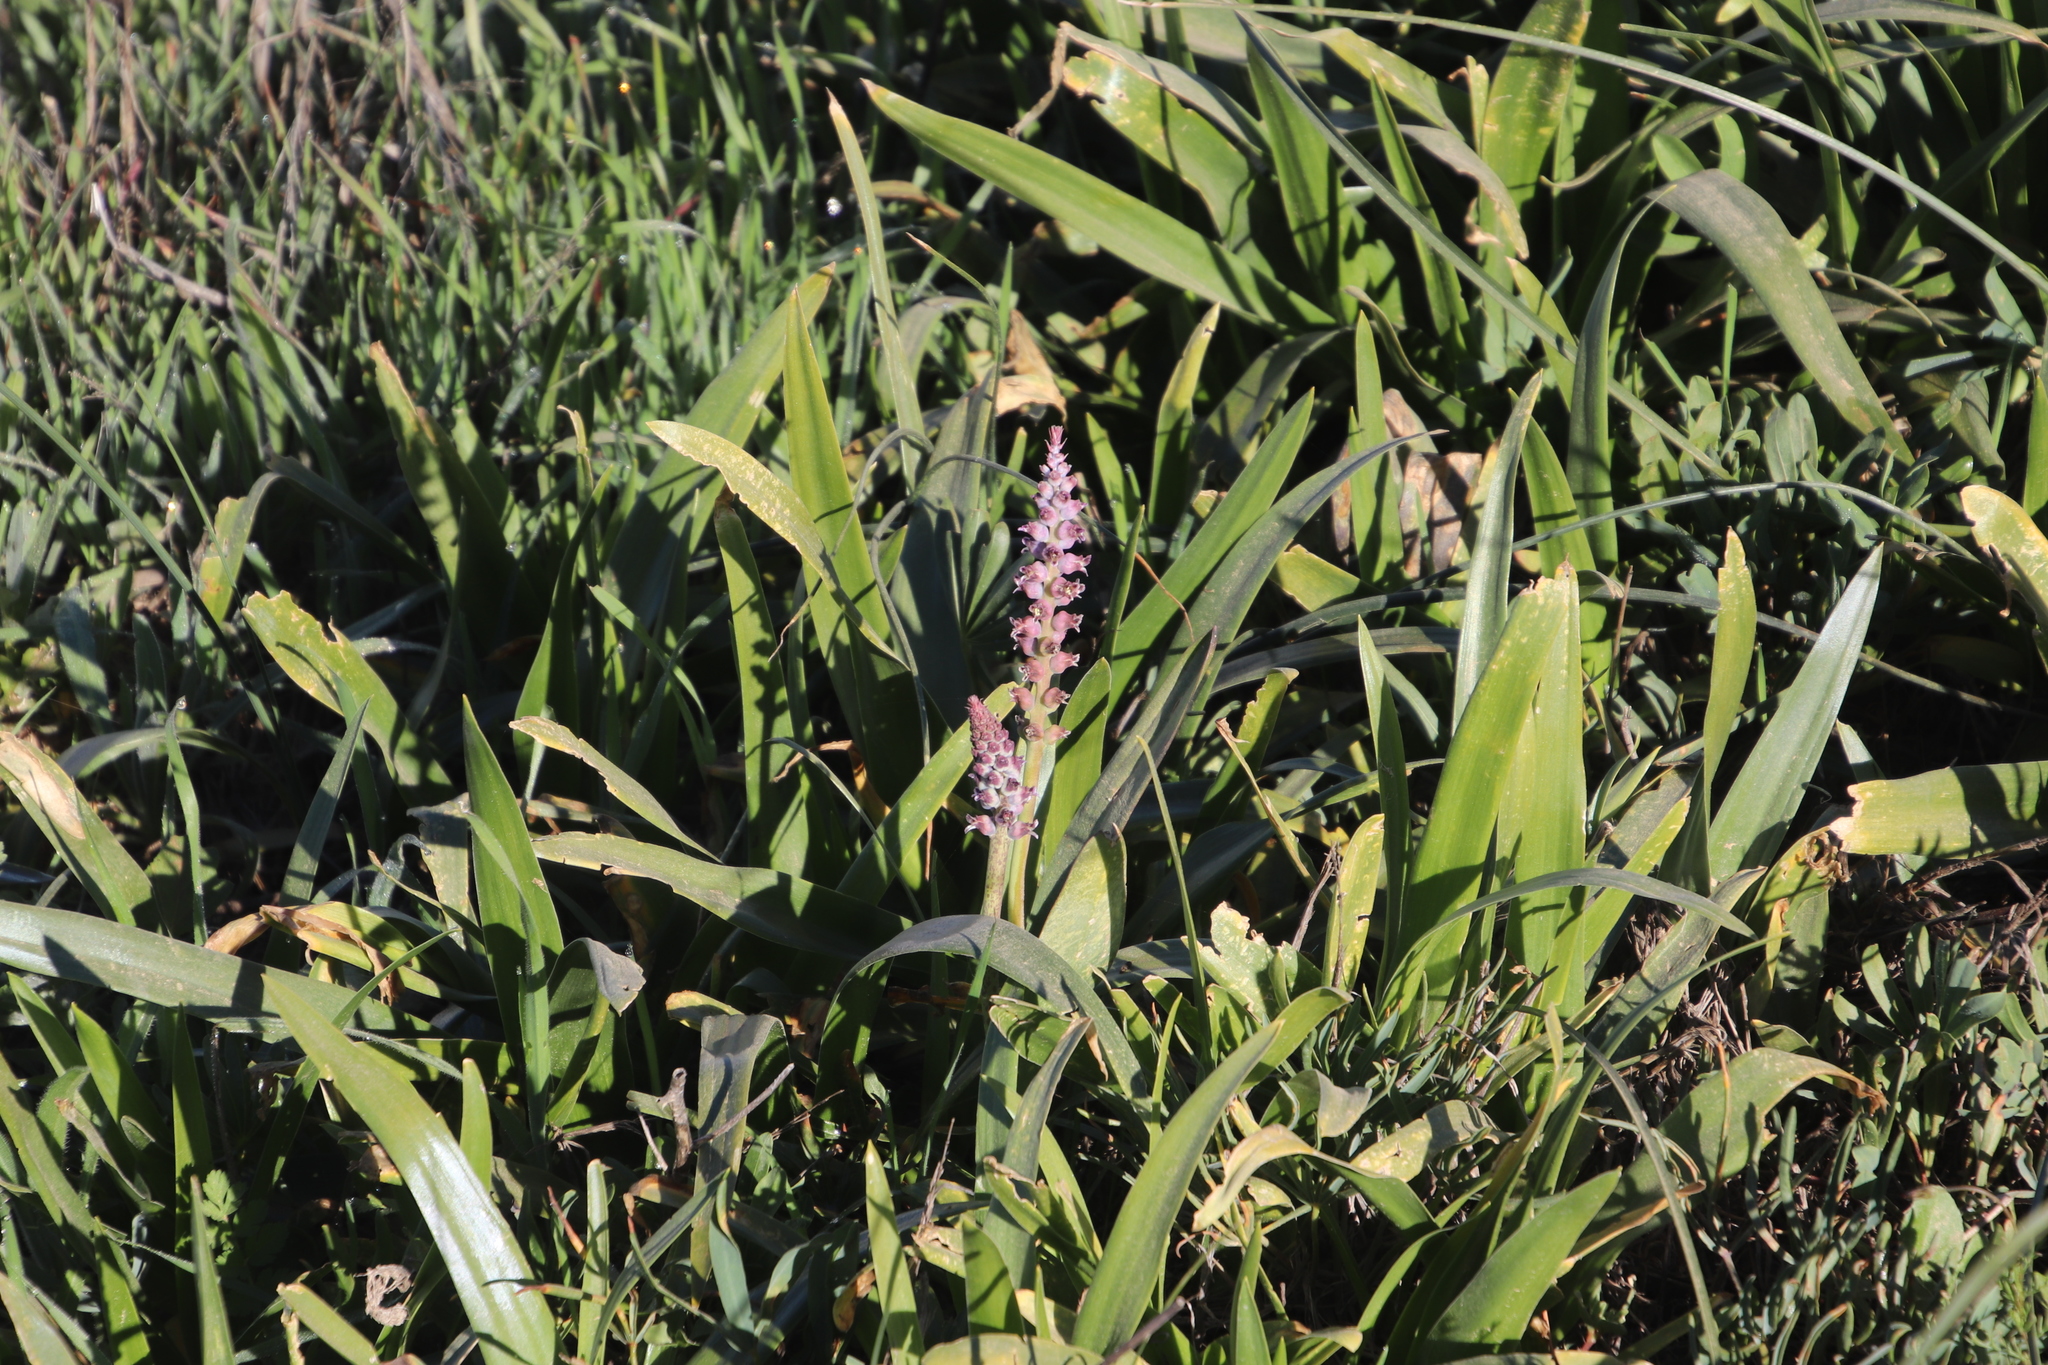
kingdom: Plantae
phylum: Tracheophyta
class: Liliopsida
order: Asparagales
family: Asparagaceae
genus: Lachenalia
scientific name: Lachenalia elegans
